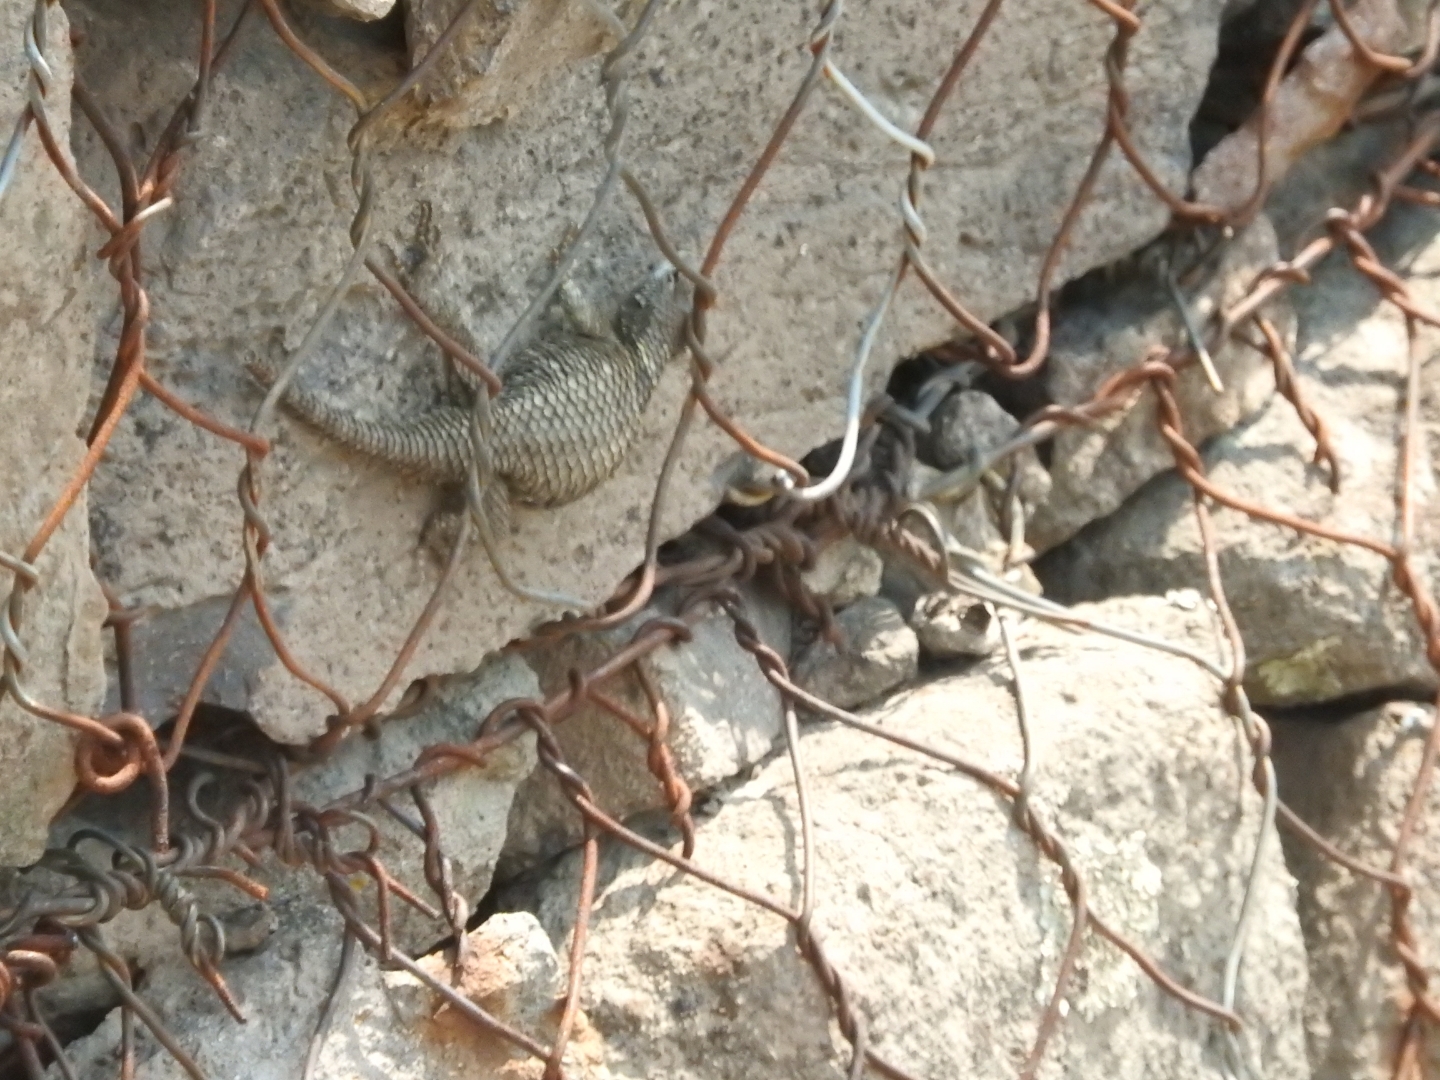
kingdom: Animalia
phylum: Chordata
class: Squamata
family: Phrynosomatidae
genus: Sceloporus
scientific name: Sceloporus torquatus
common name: Central plateau torquate lizard [melanogaster]
